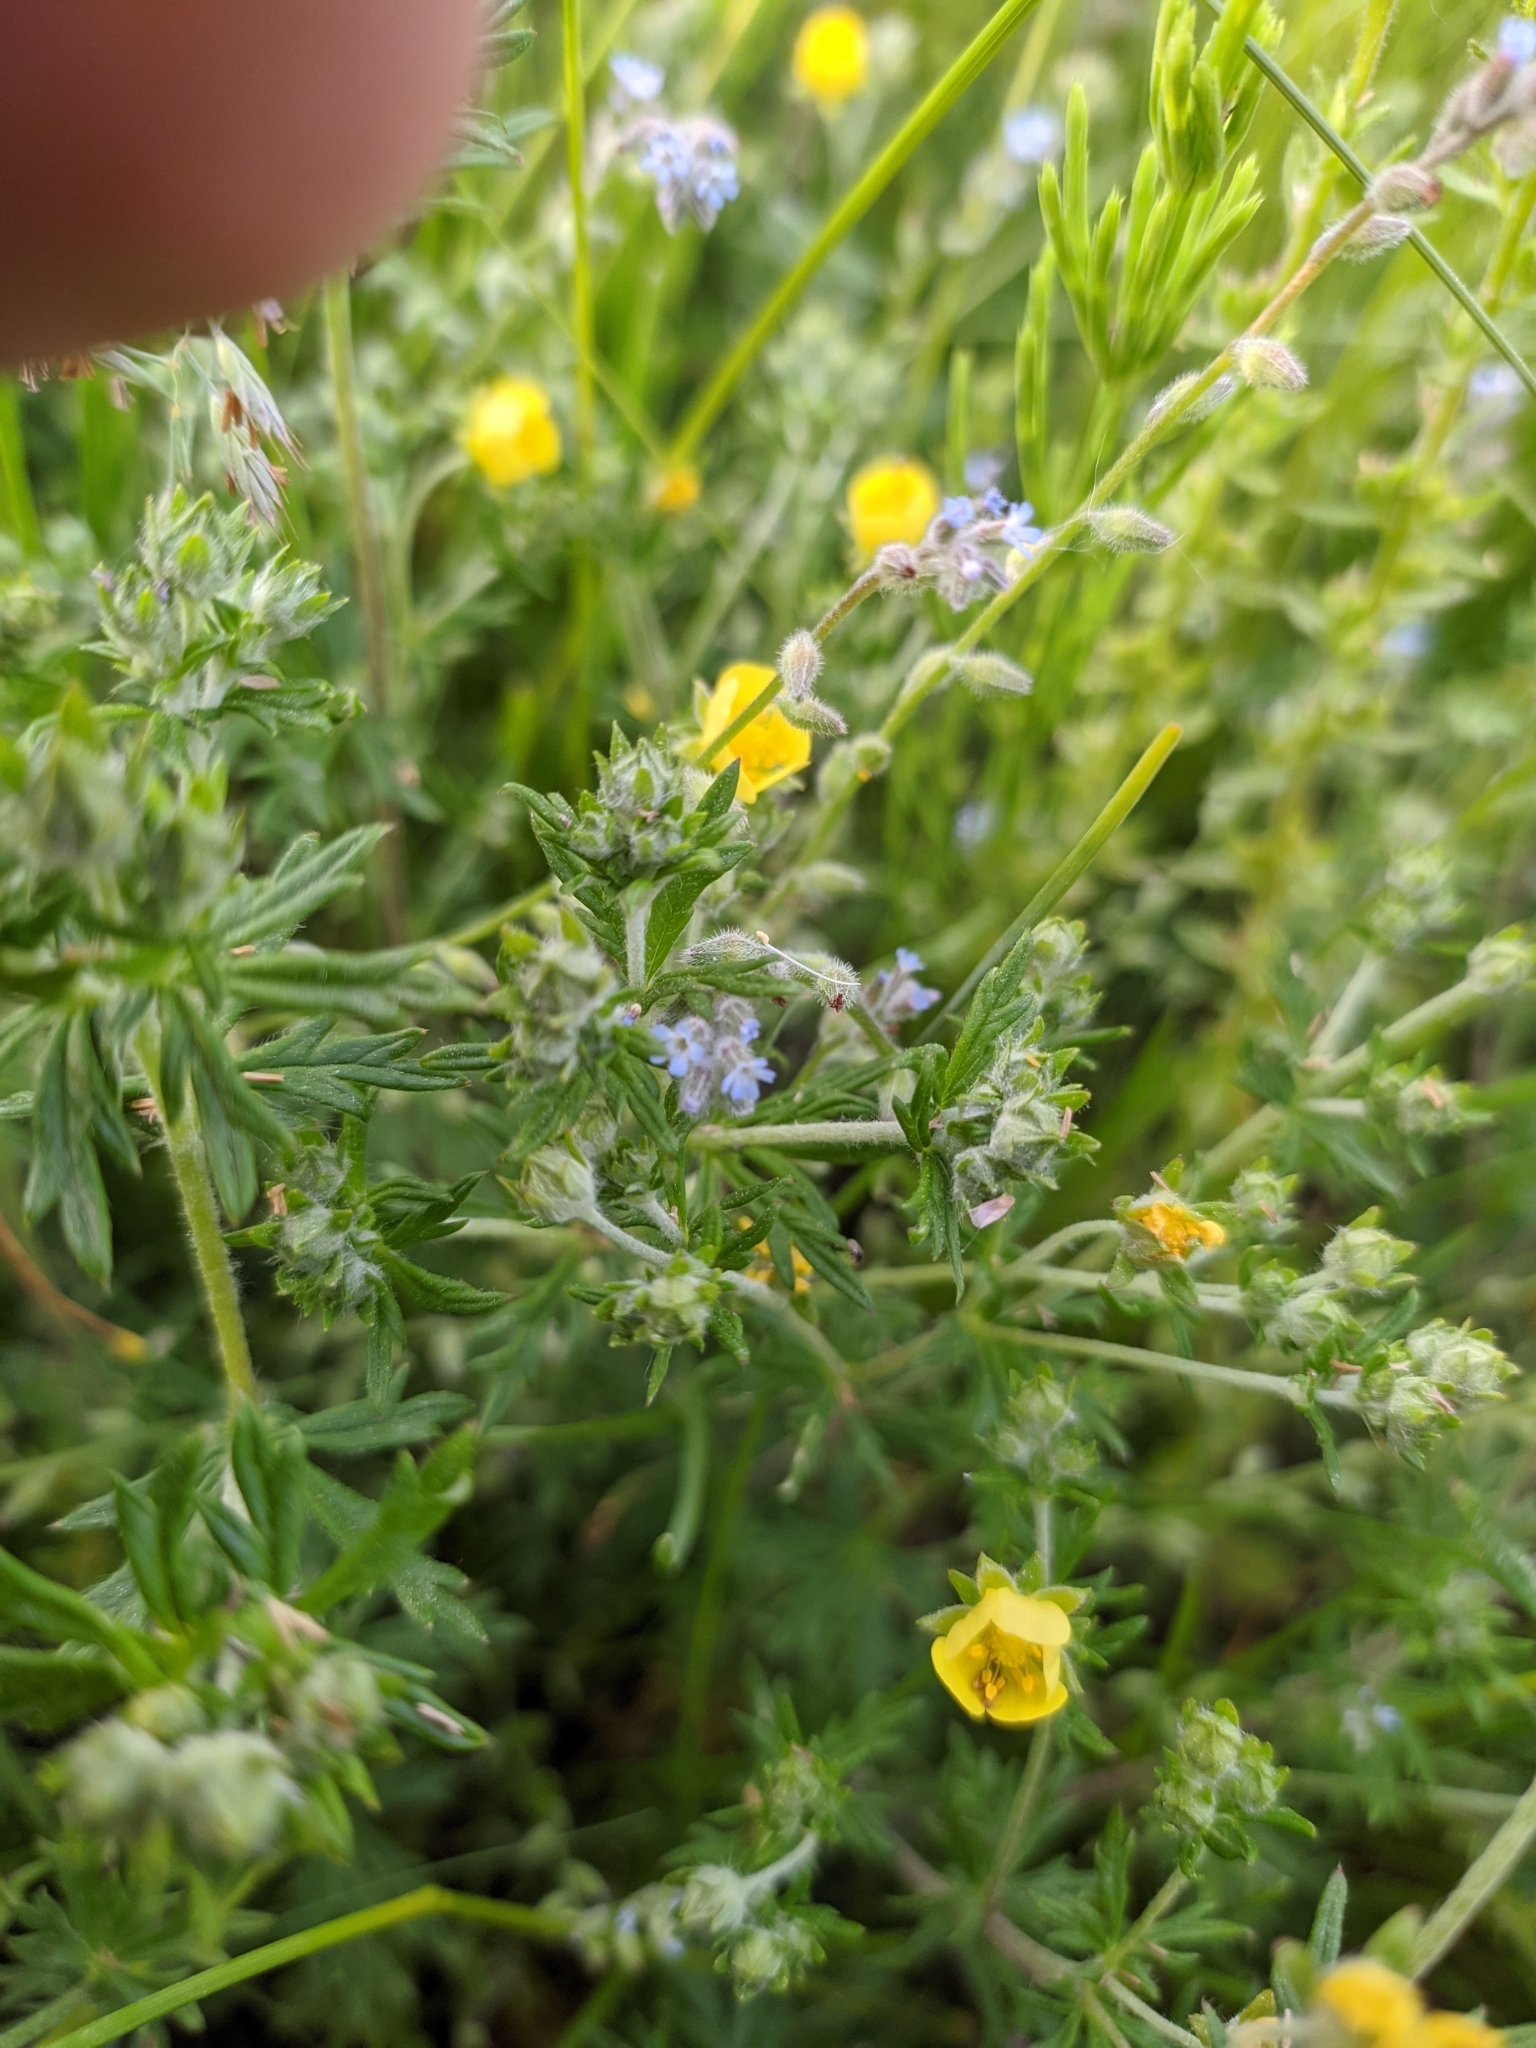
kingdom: Plantae
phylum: Tracheophyta
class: Magnoliopsida
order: Boraginales
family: Boraginaceae
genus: Myosotis
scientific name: Myosotis stricta
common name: Strict forget-me-not
